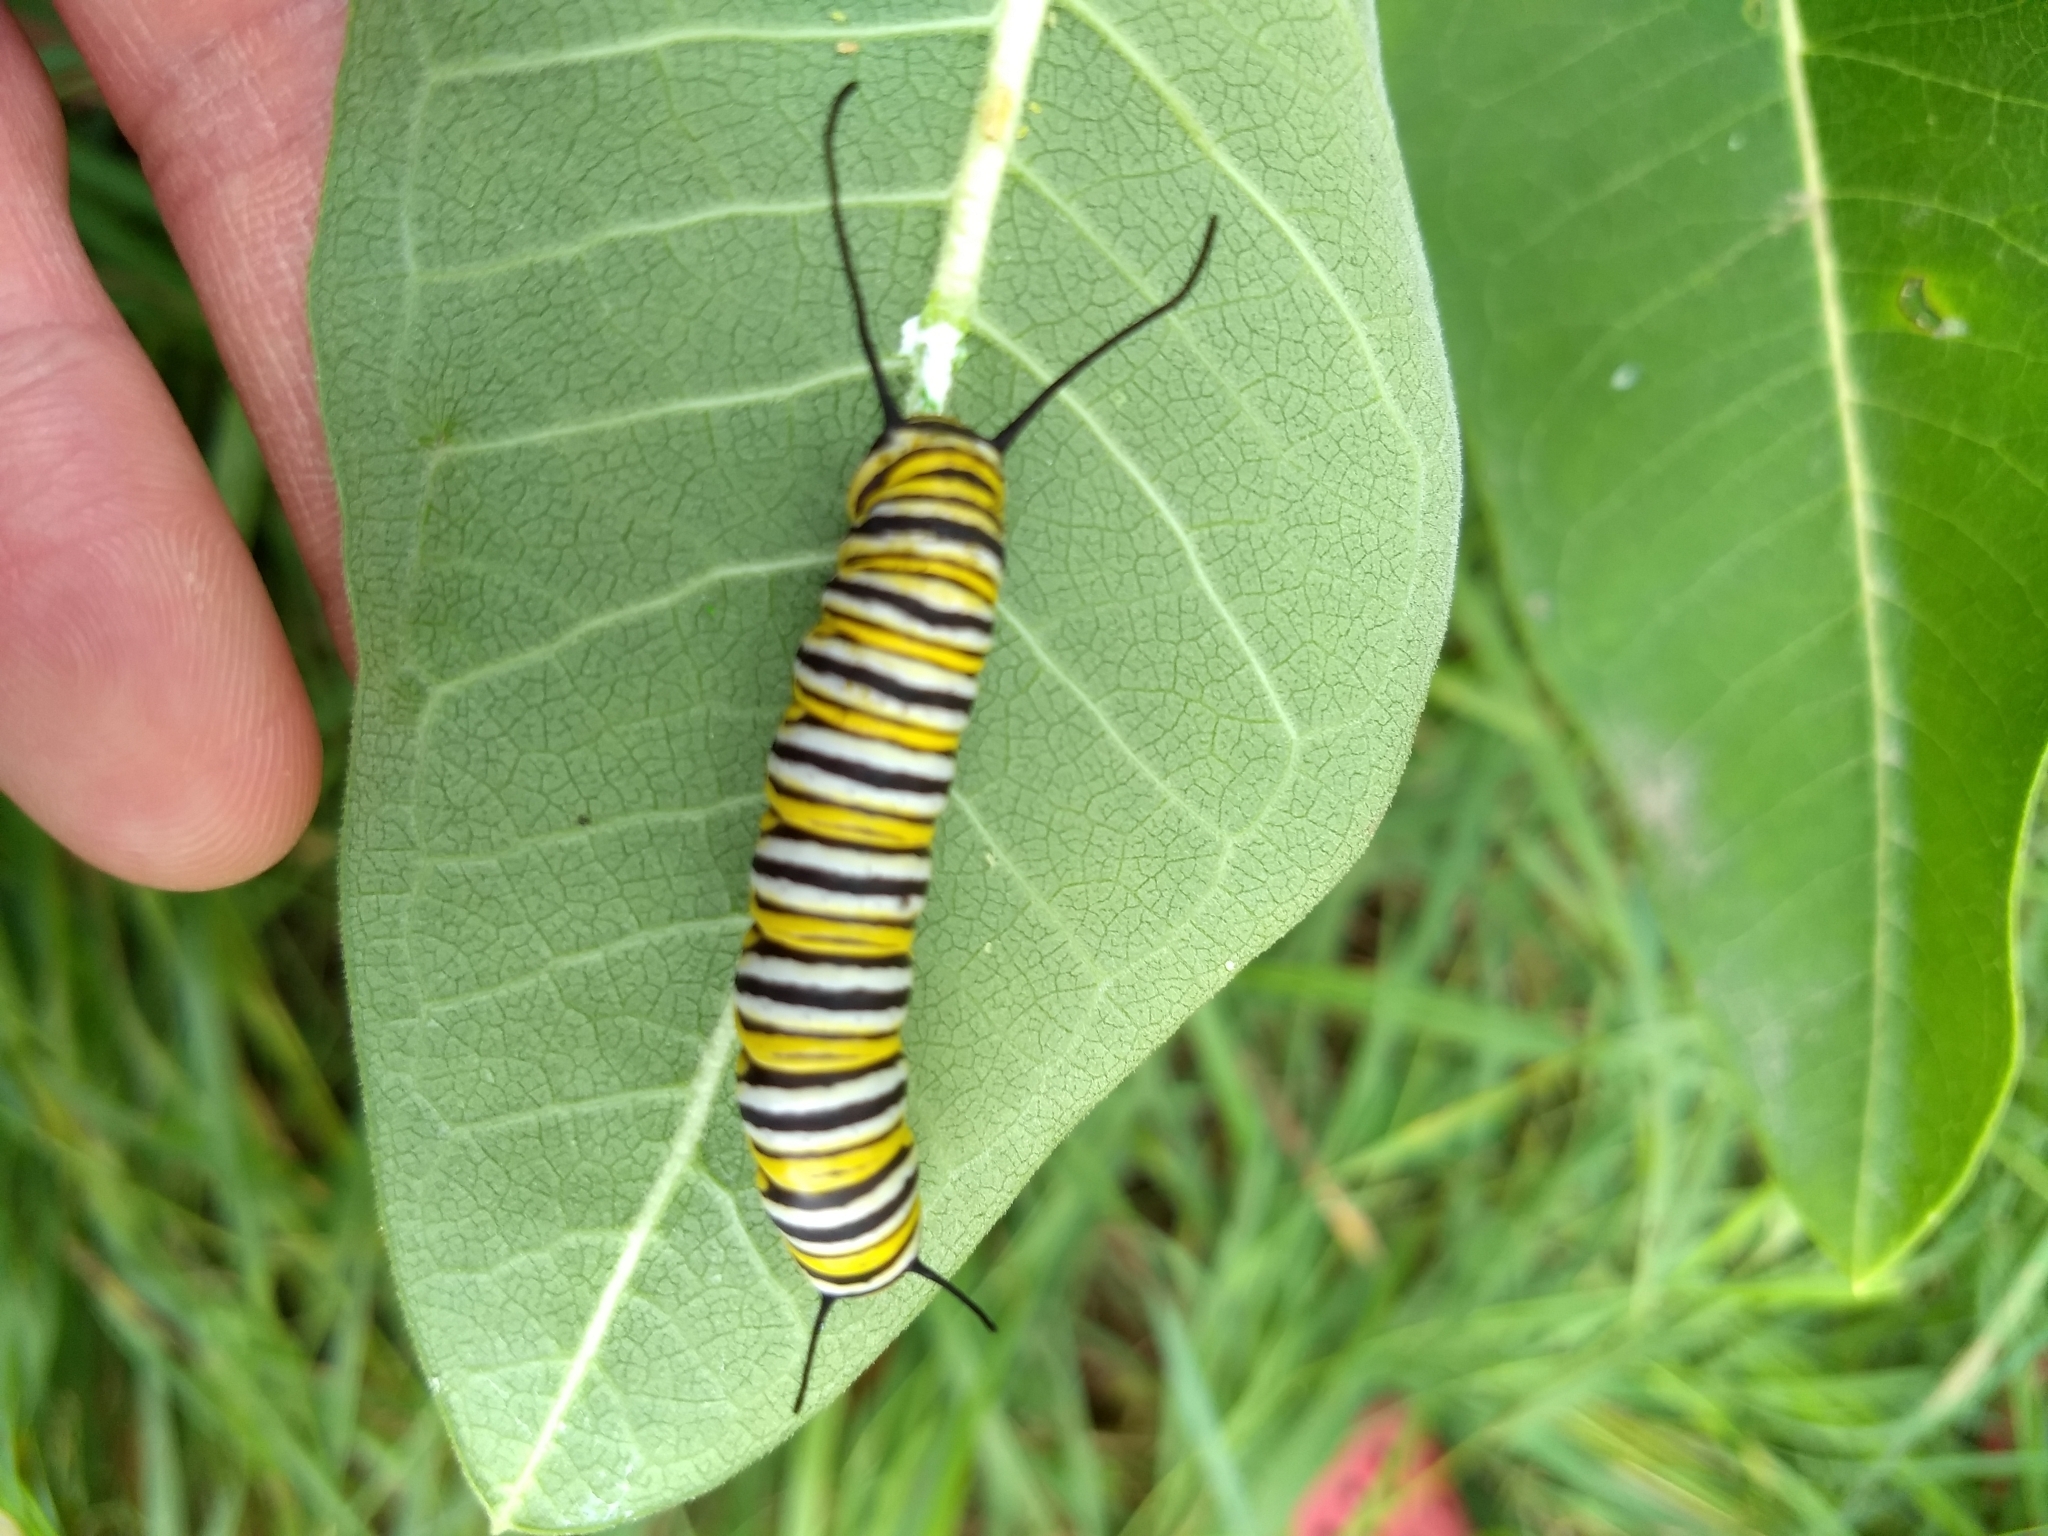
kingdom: Animalia
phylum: Arthropoda
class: Insecta
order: Lepidoptera
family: Nymphalidae
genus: Danaus
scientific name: Danaus plexippus
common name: Monarch
